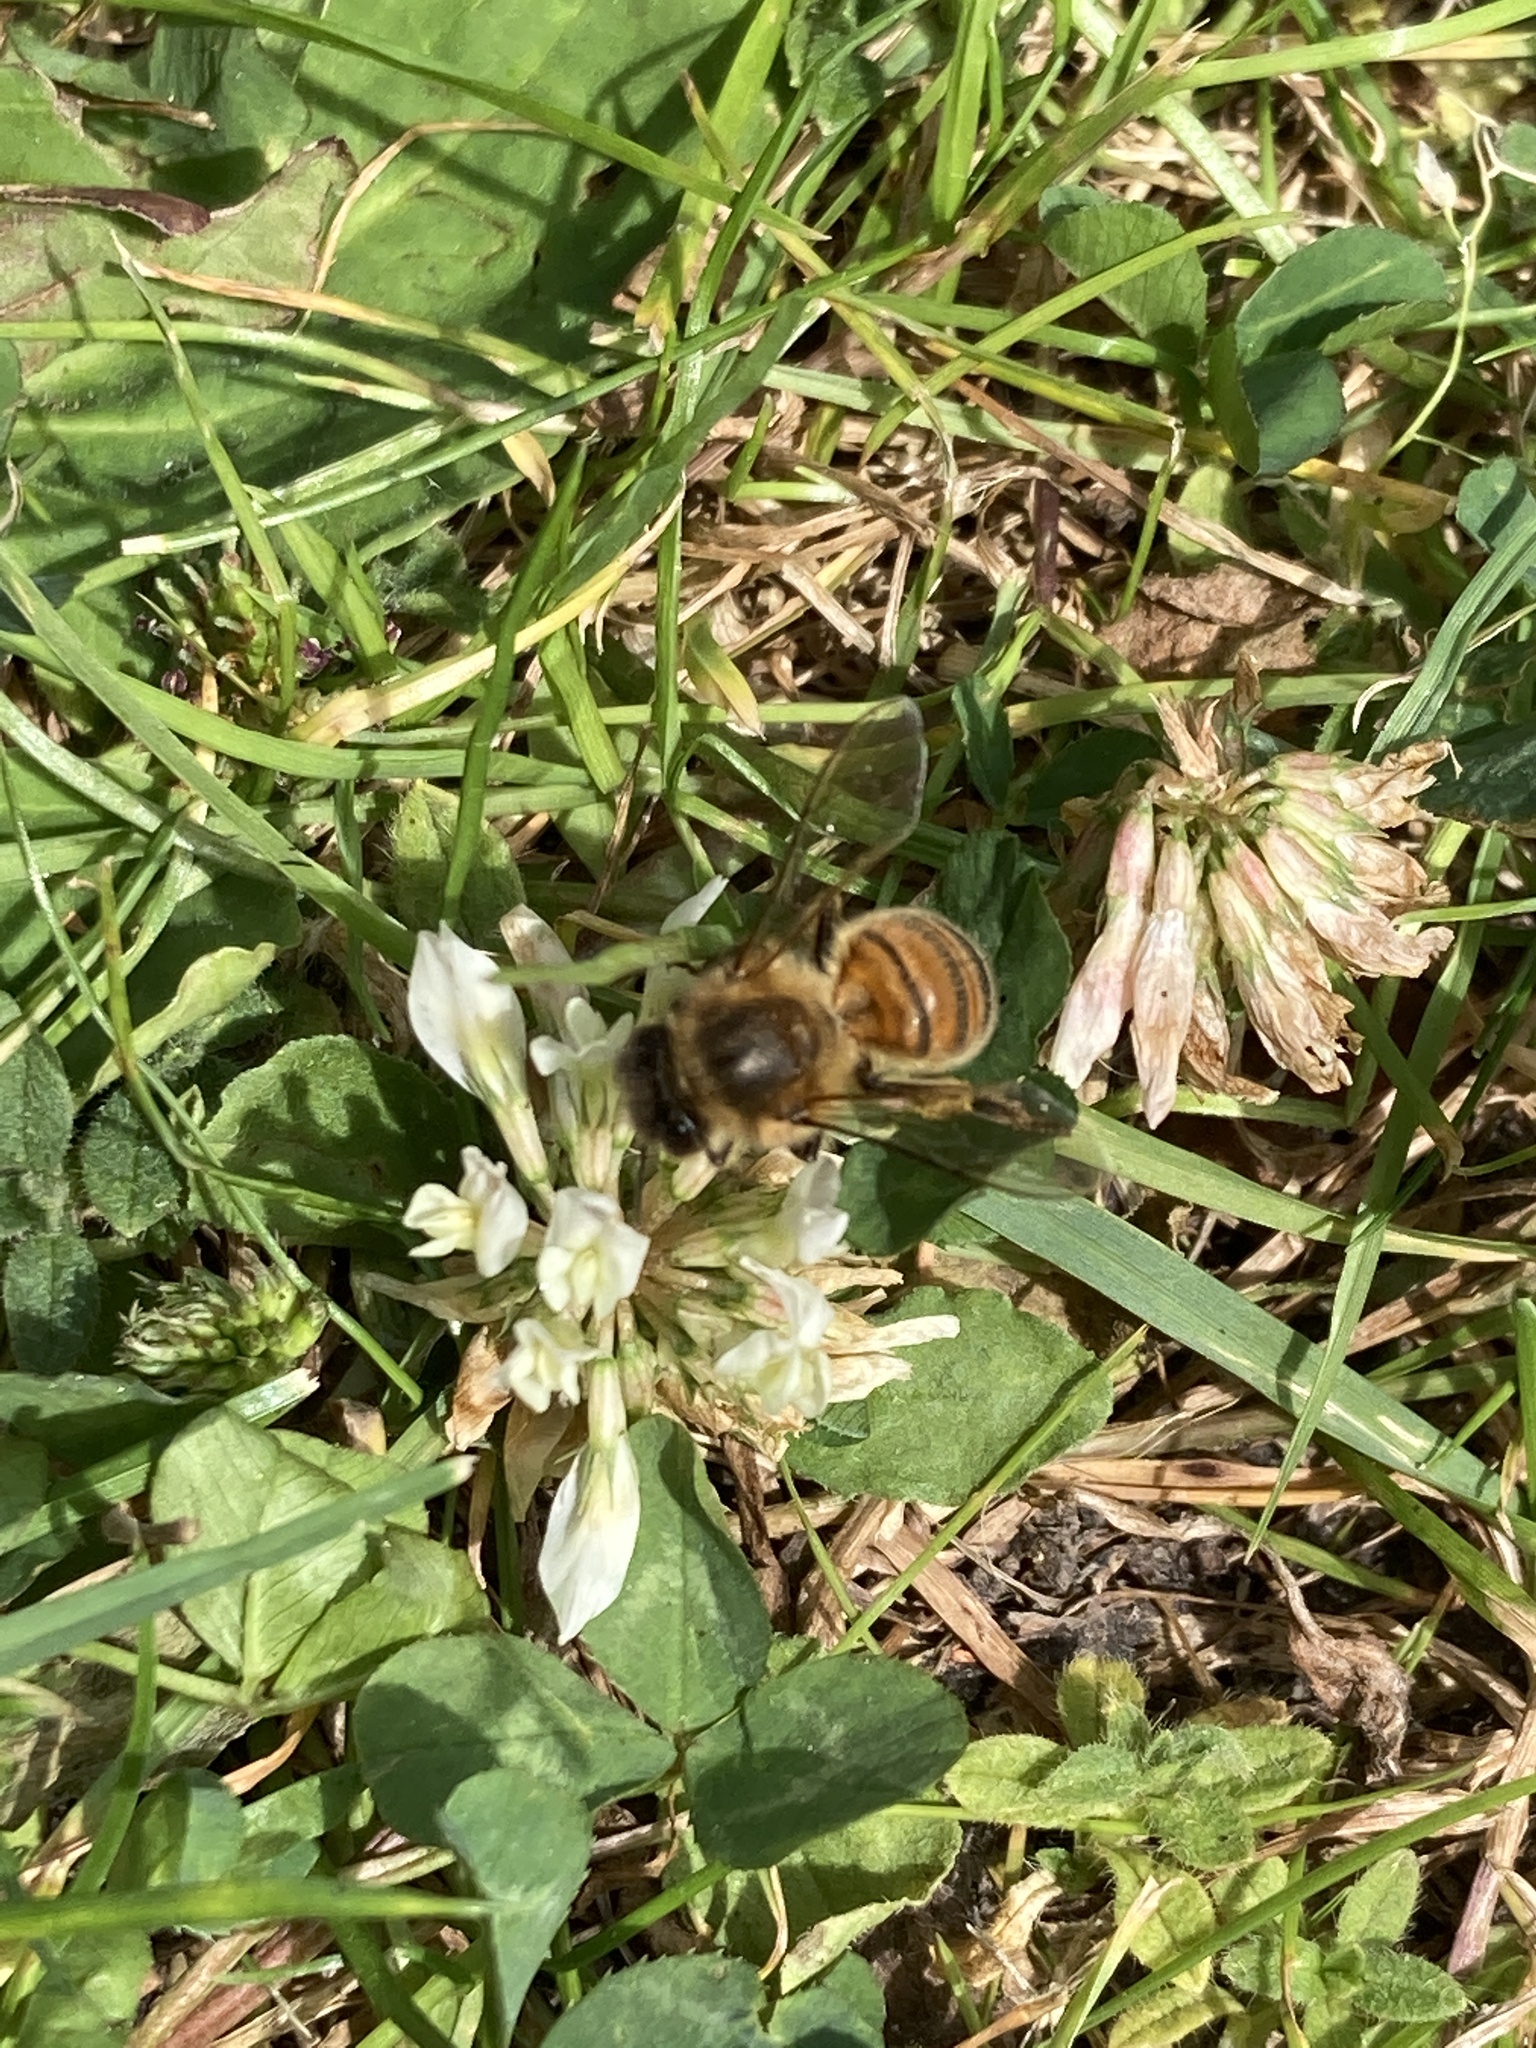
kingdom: Animalia
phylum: Arthropoda
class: Insecta
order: Hymenoptera
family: Apidae
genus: Apis
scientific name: Apis mellifera
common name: Honey bee
